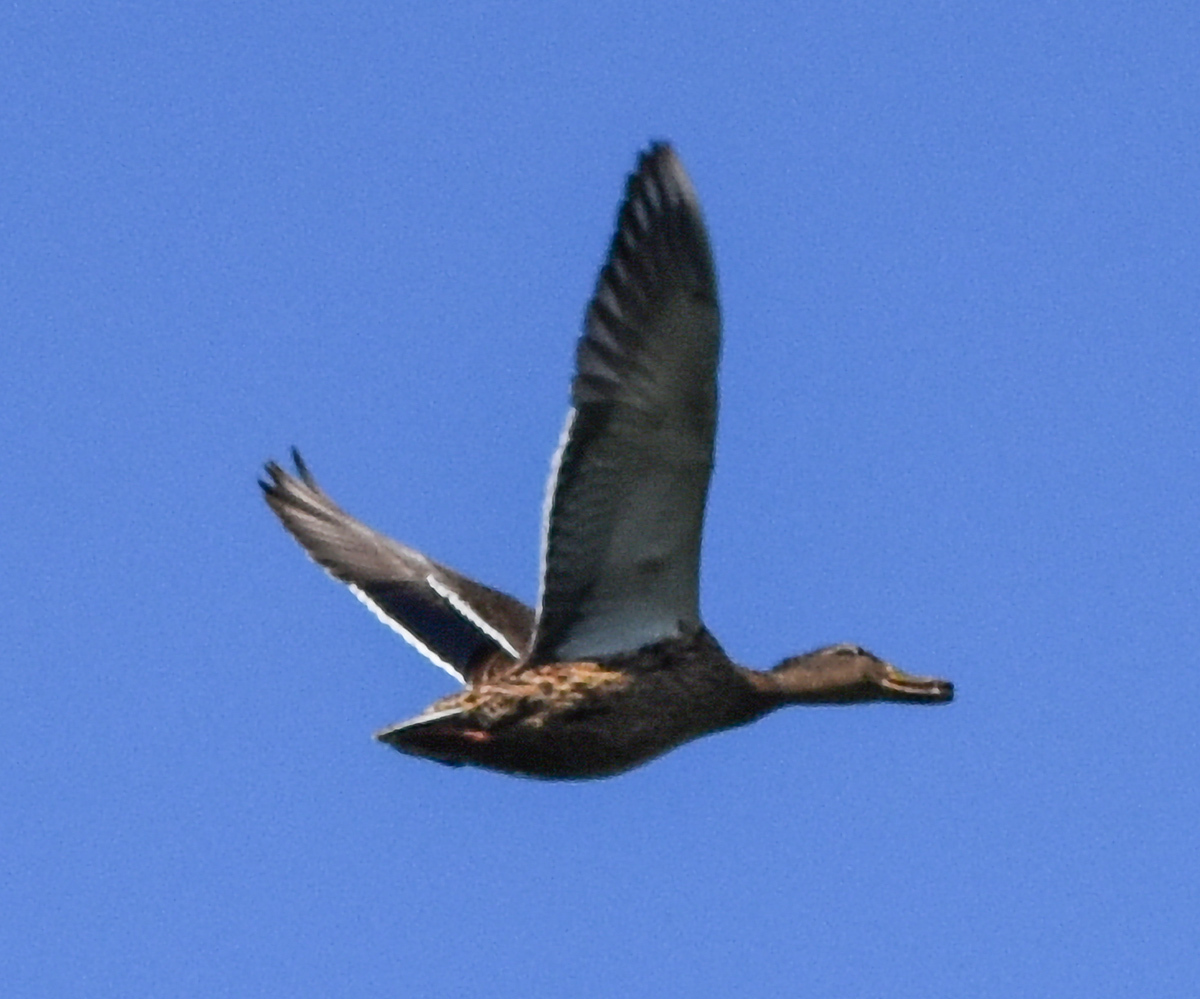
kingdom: Animalia
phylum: Chordata
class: Aves
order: Anseriformes
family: Anatidae
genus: Anas
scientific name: Anas platyrhynchos
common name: Mallard
